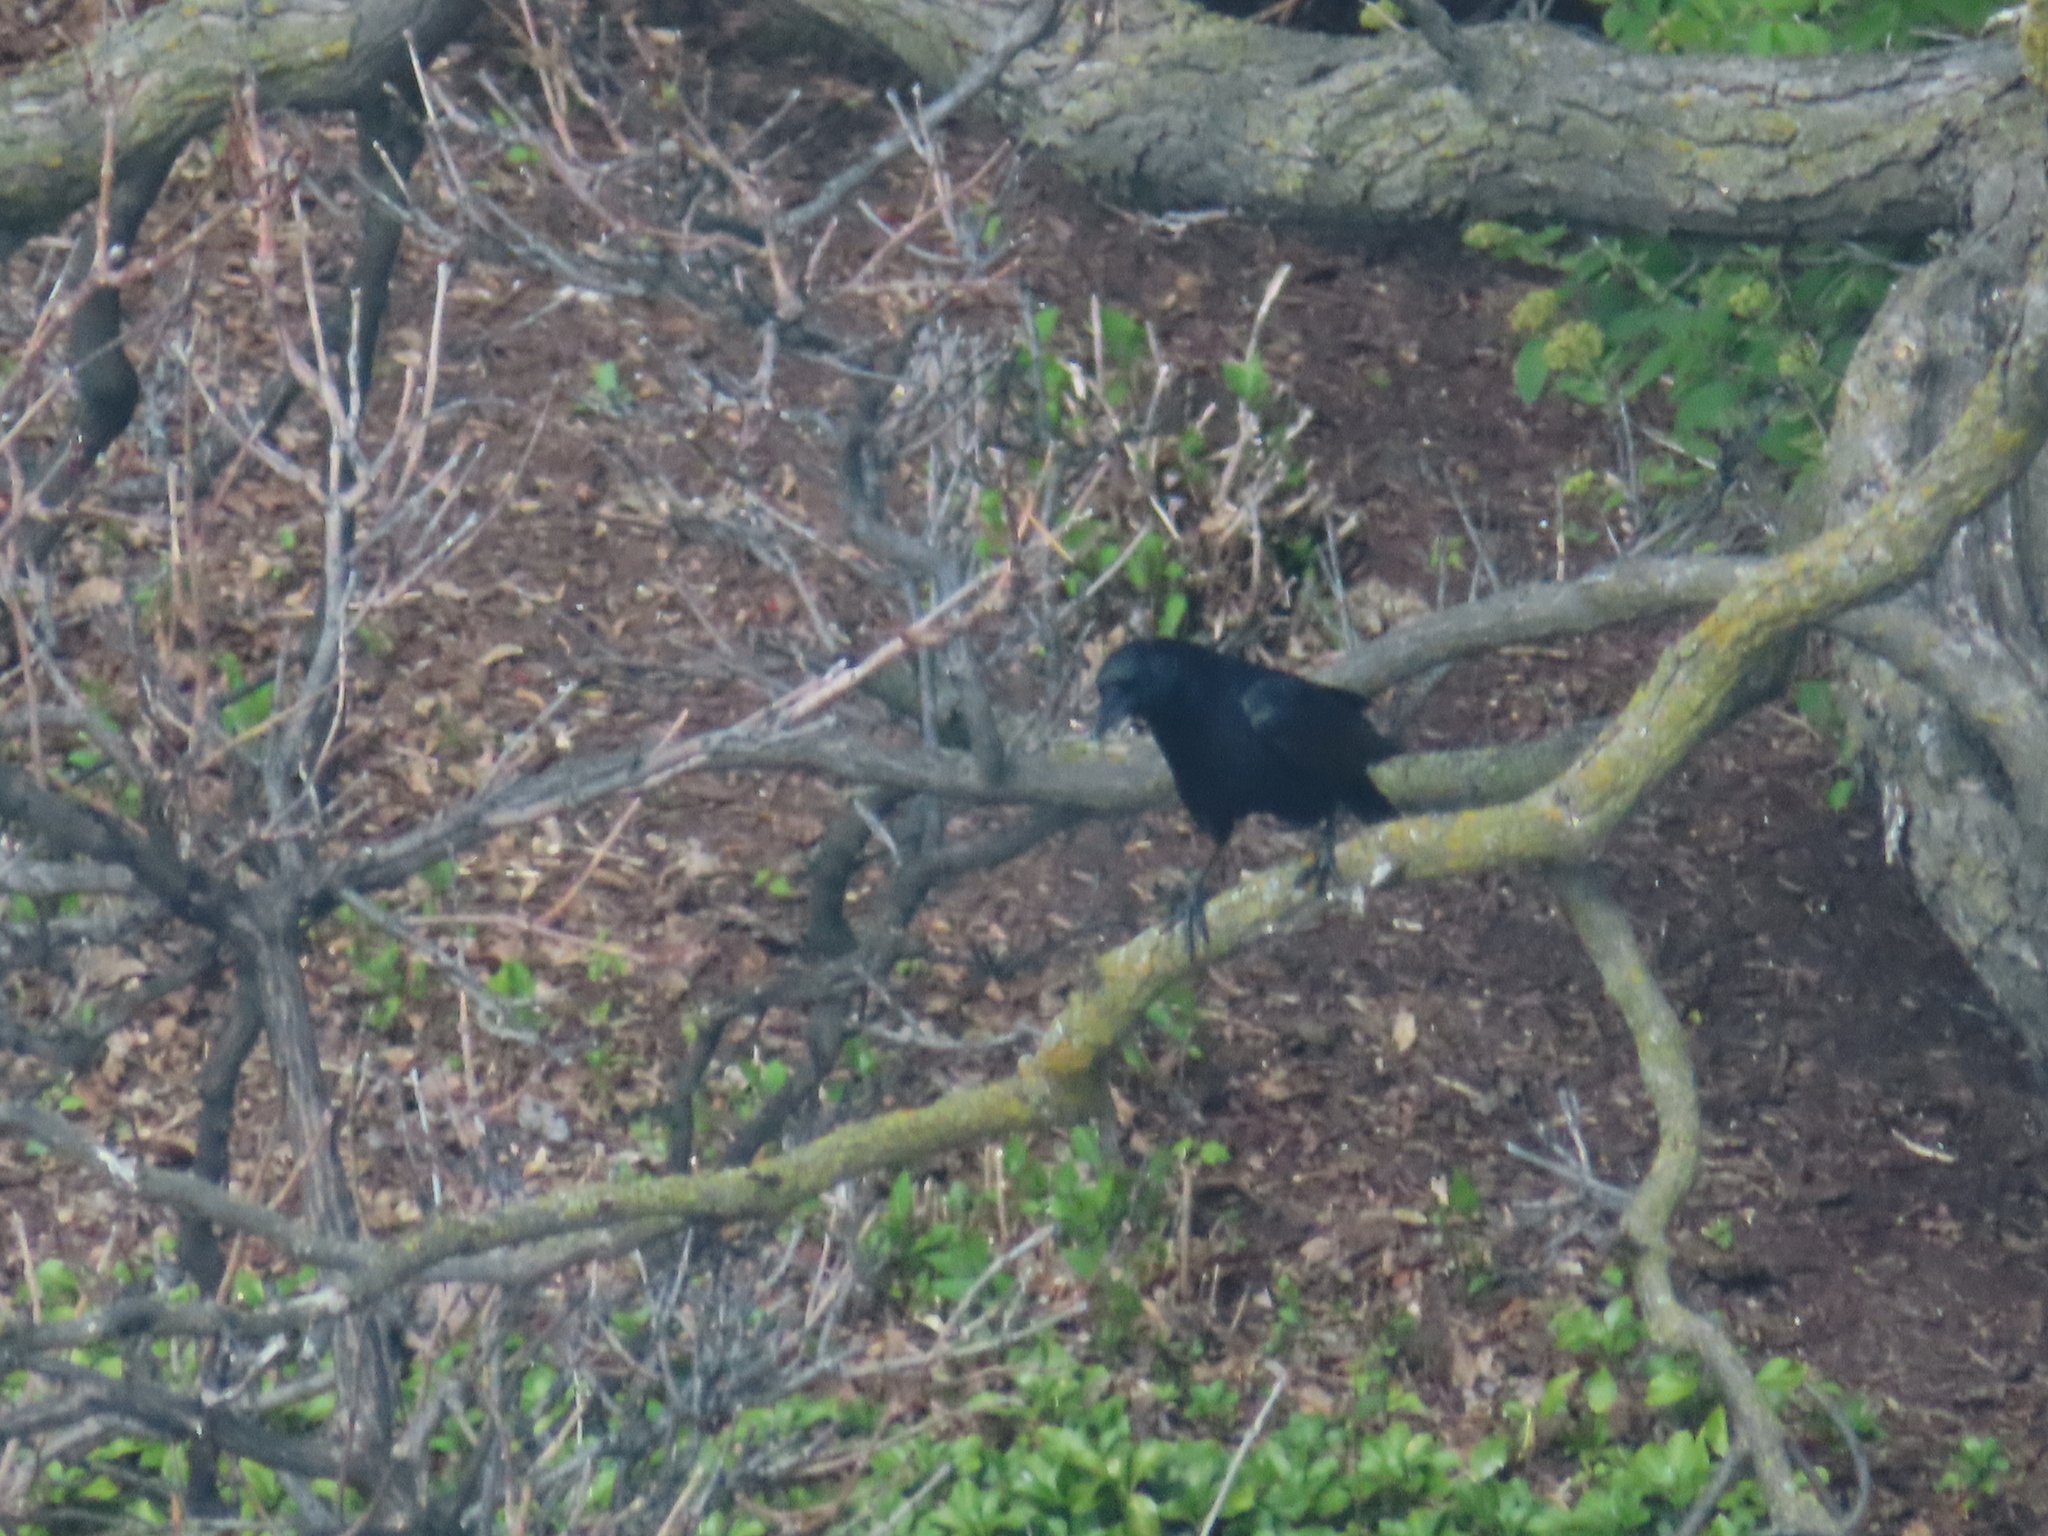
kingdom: Animalia
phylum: Chordata
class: Aves
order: Passeriformes
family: Corvidae
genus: Corvus
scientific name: Corvus brachyrhynchos
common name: American crow
